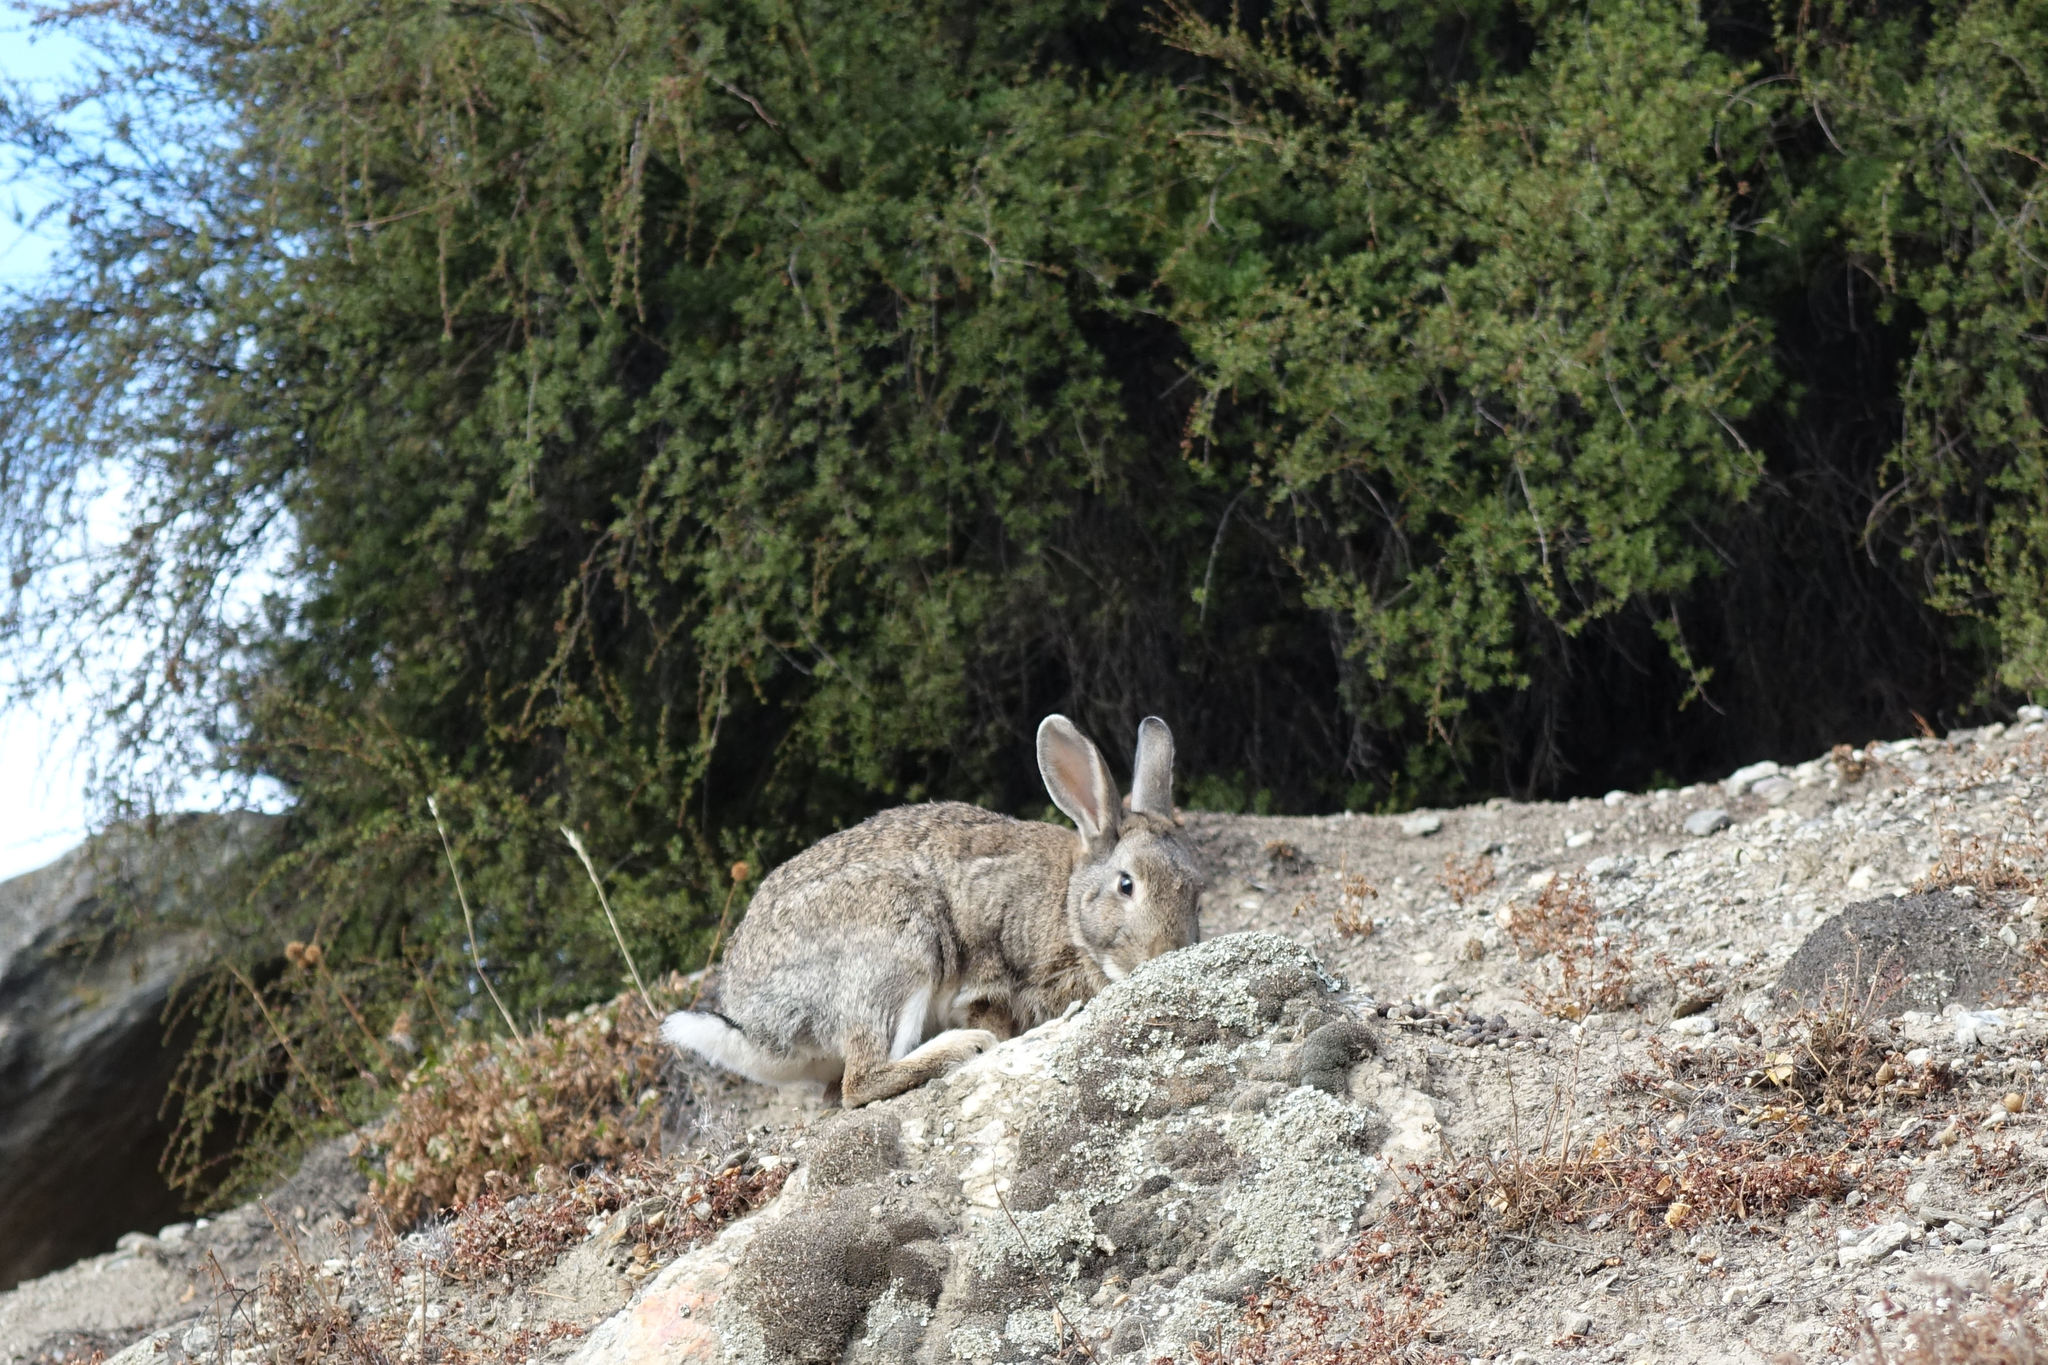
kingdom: Animalia
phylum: Chordata
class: Mammalia
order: Lagomorpha
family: Leporidae
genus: Oryctolagus
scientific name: Oryctolagus cuniculus
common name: European rabbit
